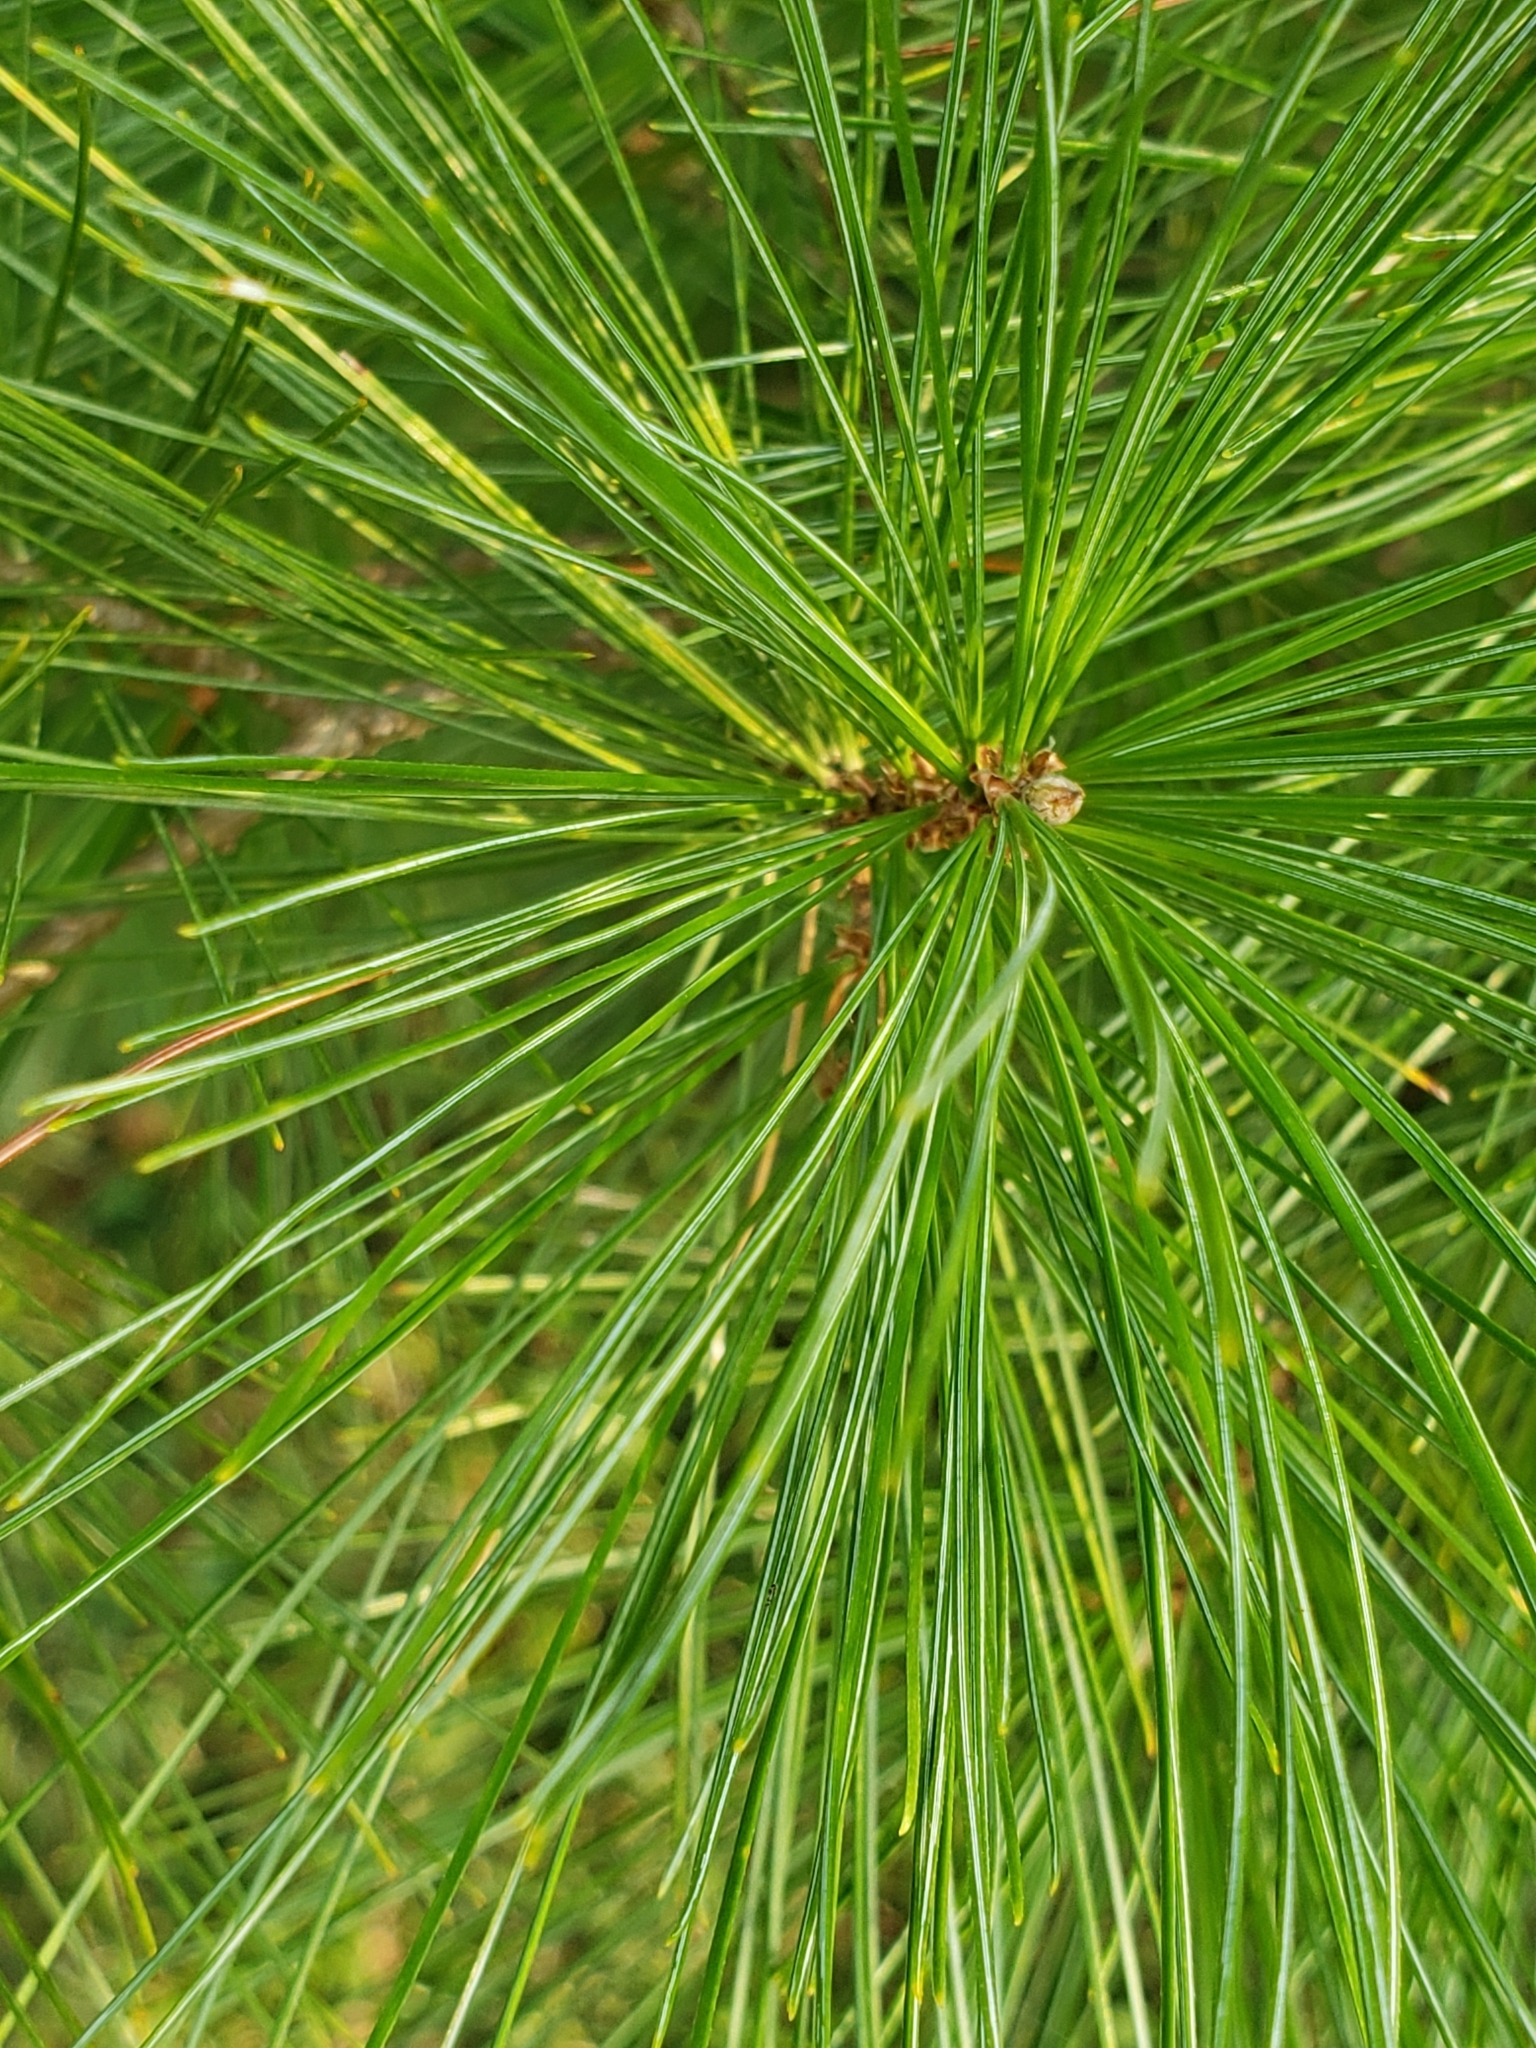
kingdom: Plantae
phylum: Tracheophyta
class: Pinopsida
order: Pinales
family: Pinaceae
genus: Pinus
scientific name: Pinus strobus
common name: Weymouth pine
